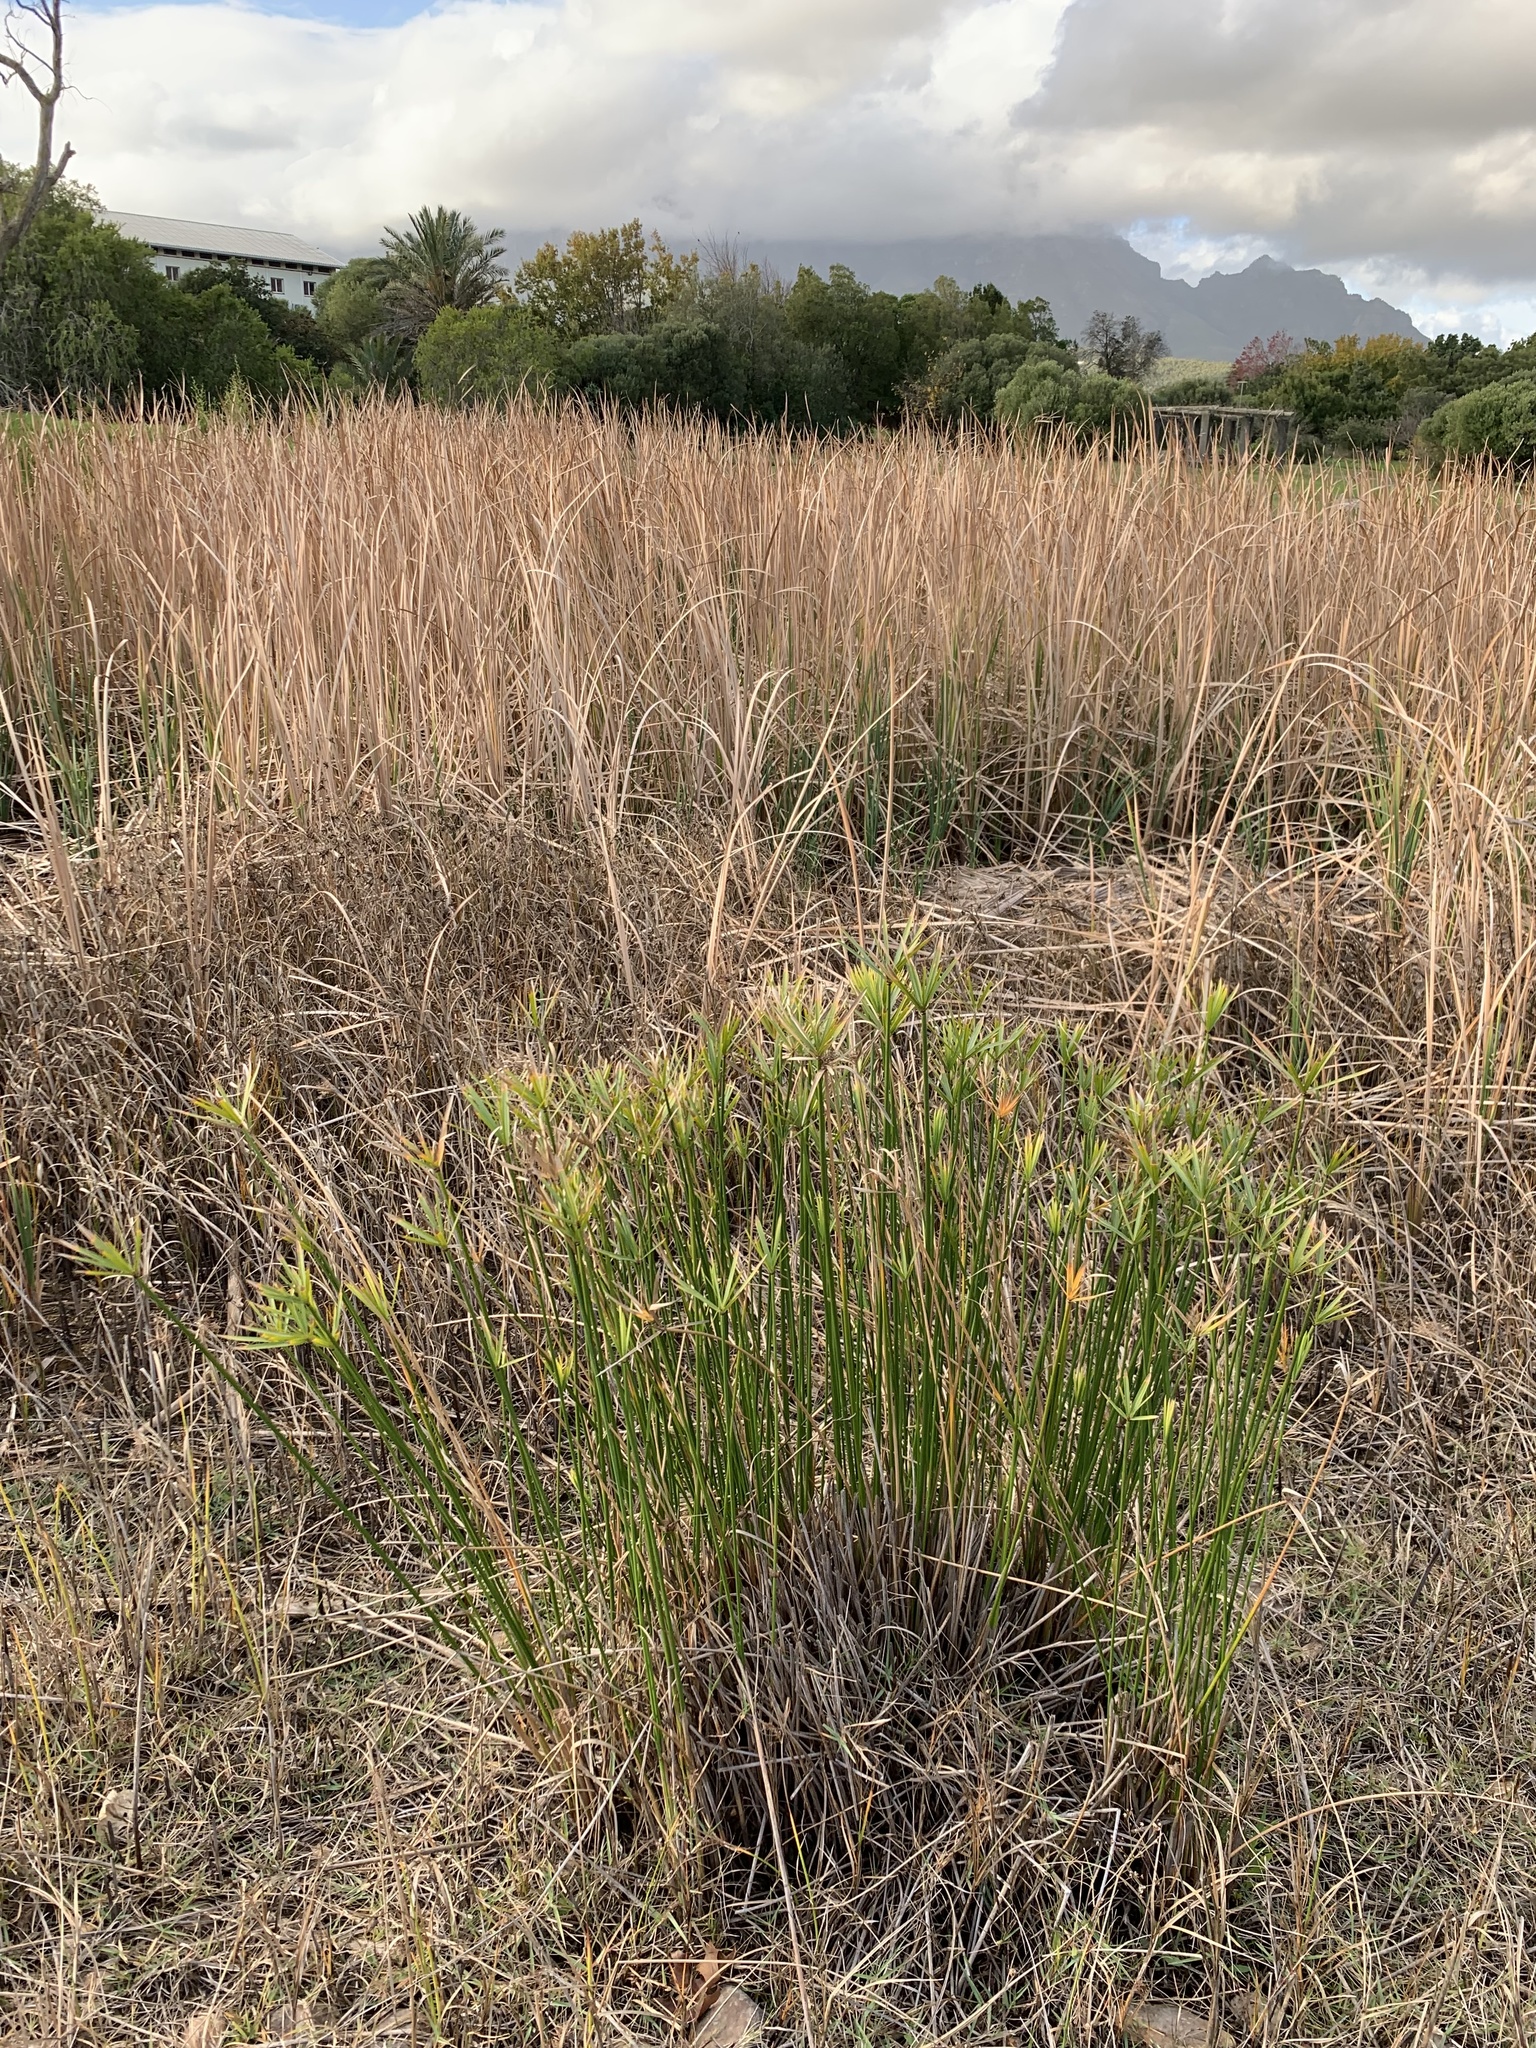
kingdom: Plantae
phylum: Tracheophyta
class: Liliopsida
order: Poales
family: Cyperaceae
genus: Cyperus
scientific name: Cyperus textilis
